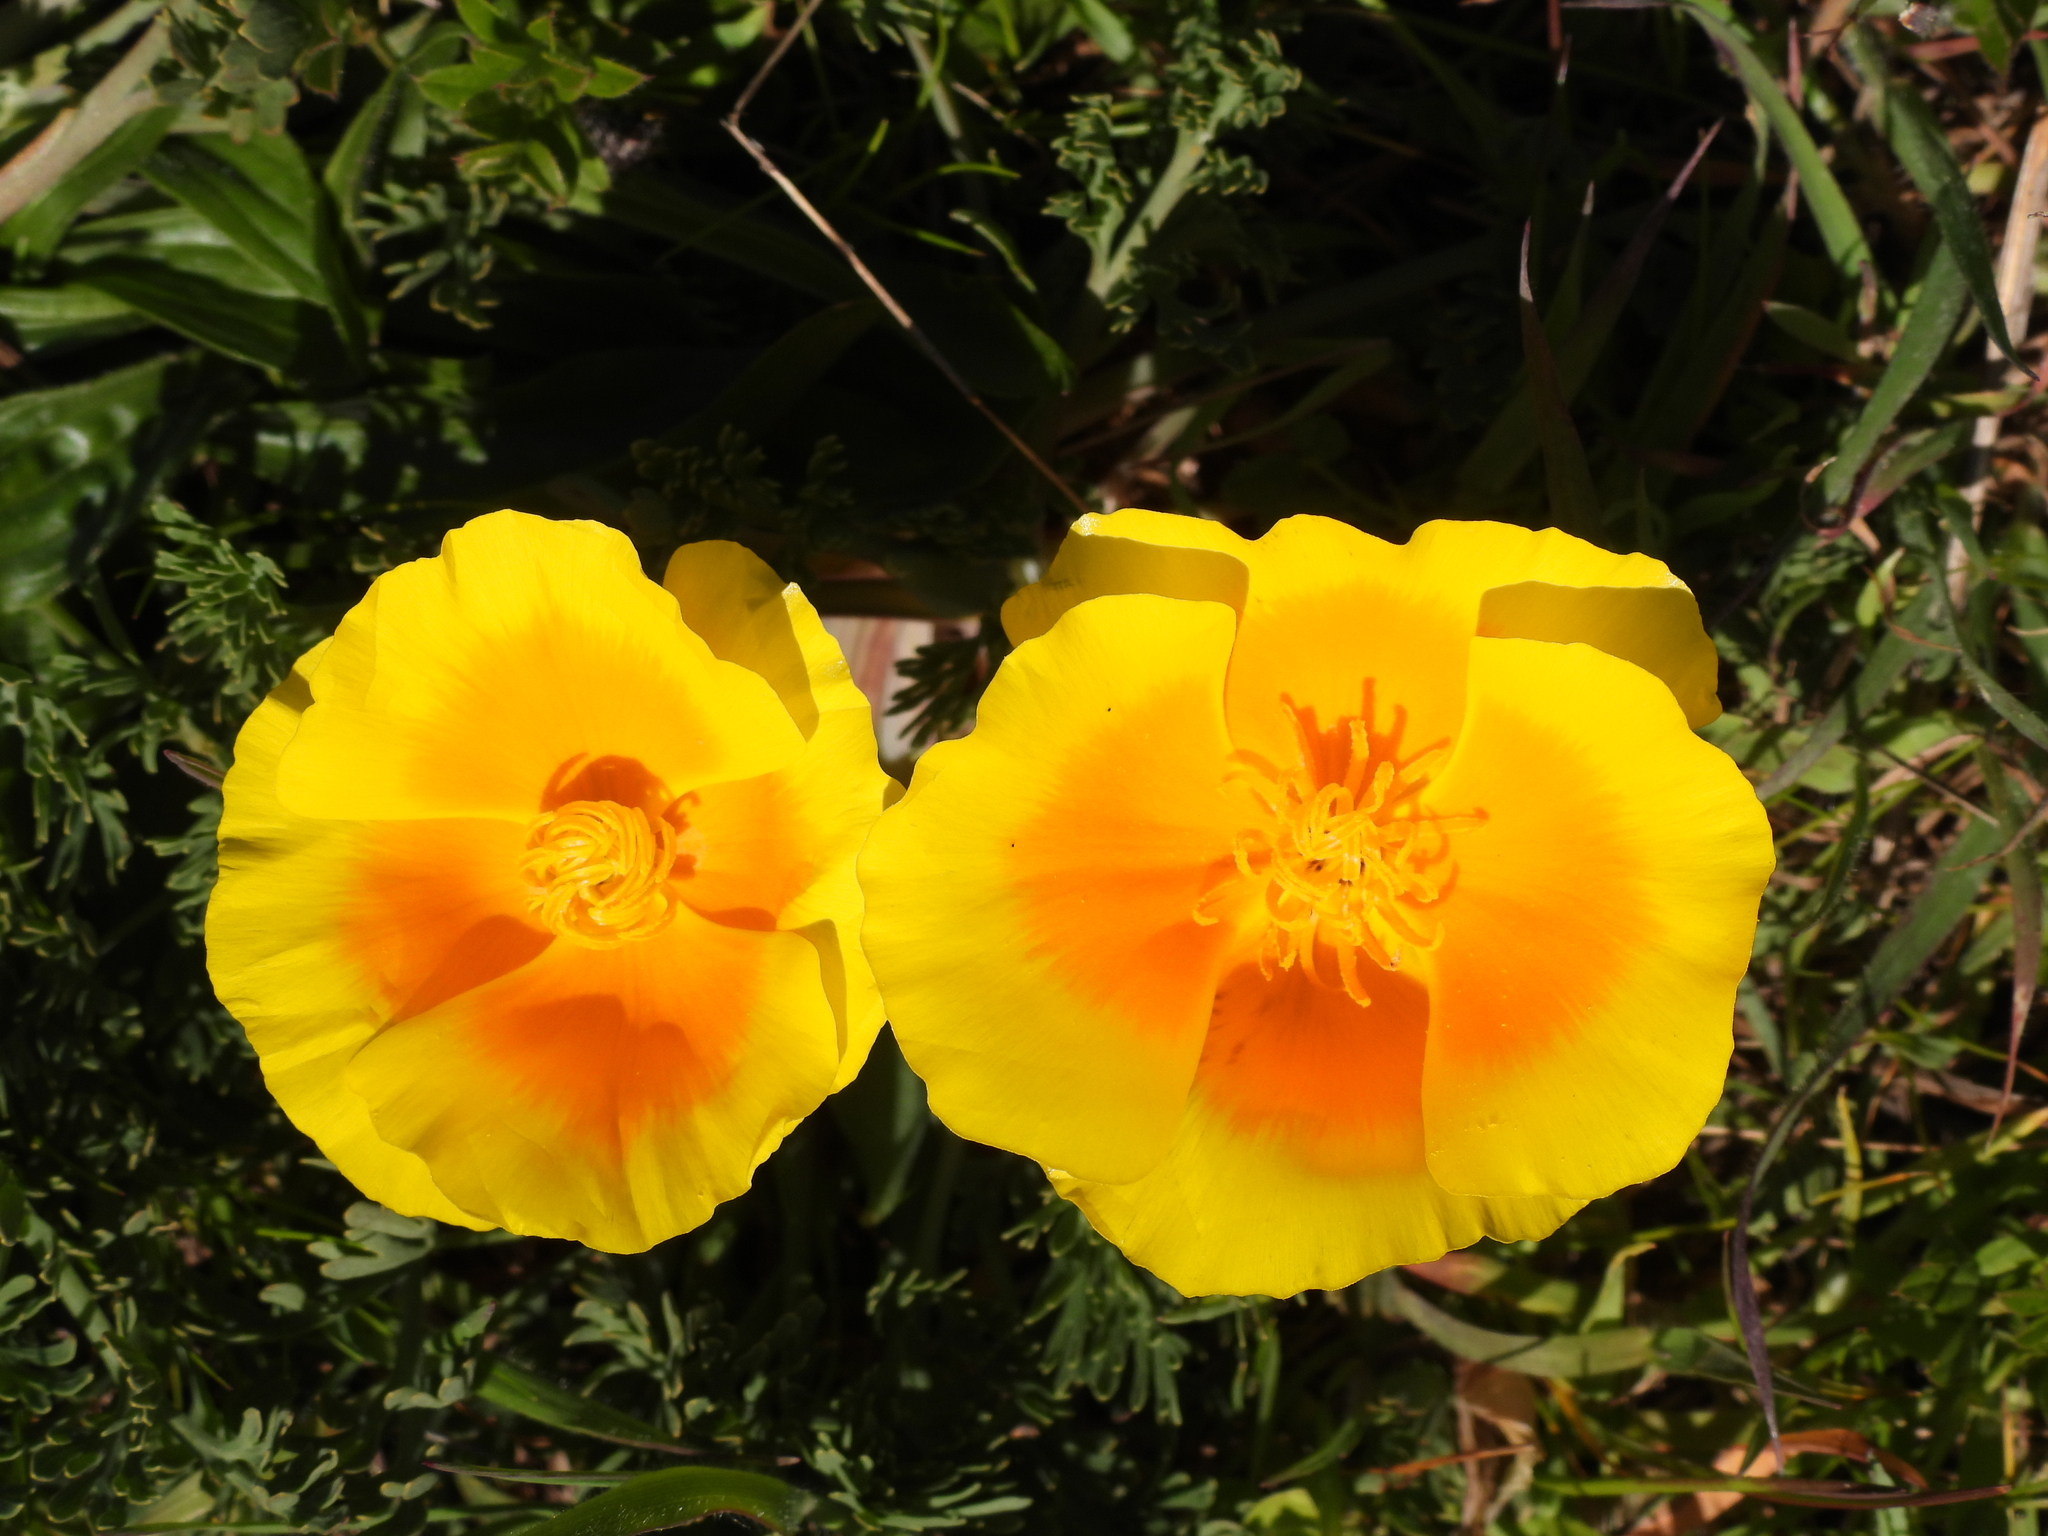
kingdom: Plantae
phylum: Tracheophyta
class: Magnoliopsida
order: Ranunculales
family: Papaveraceae
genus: Eschscholzia
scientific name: Eschscholzia californica
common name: California poppy
